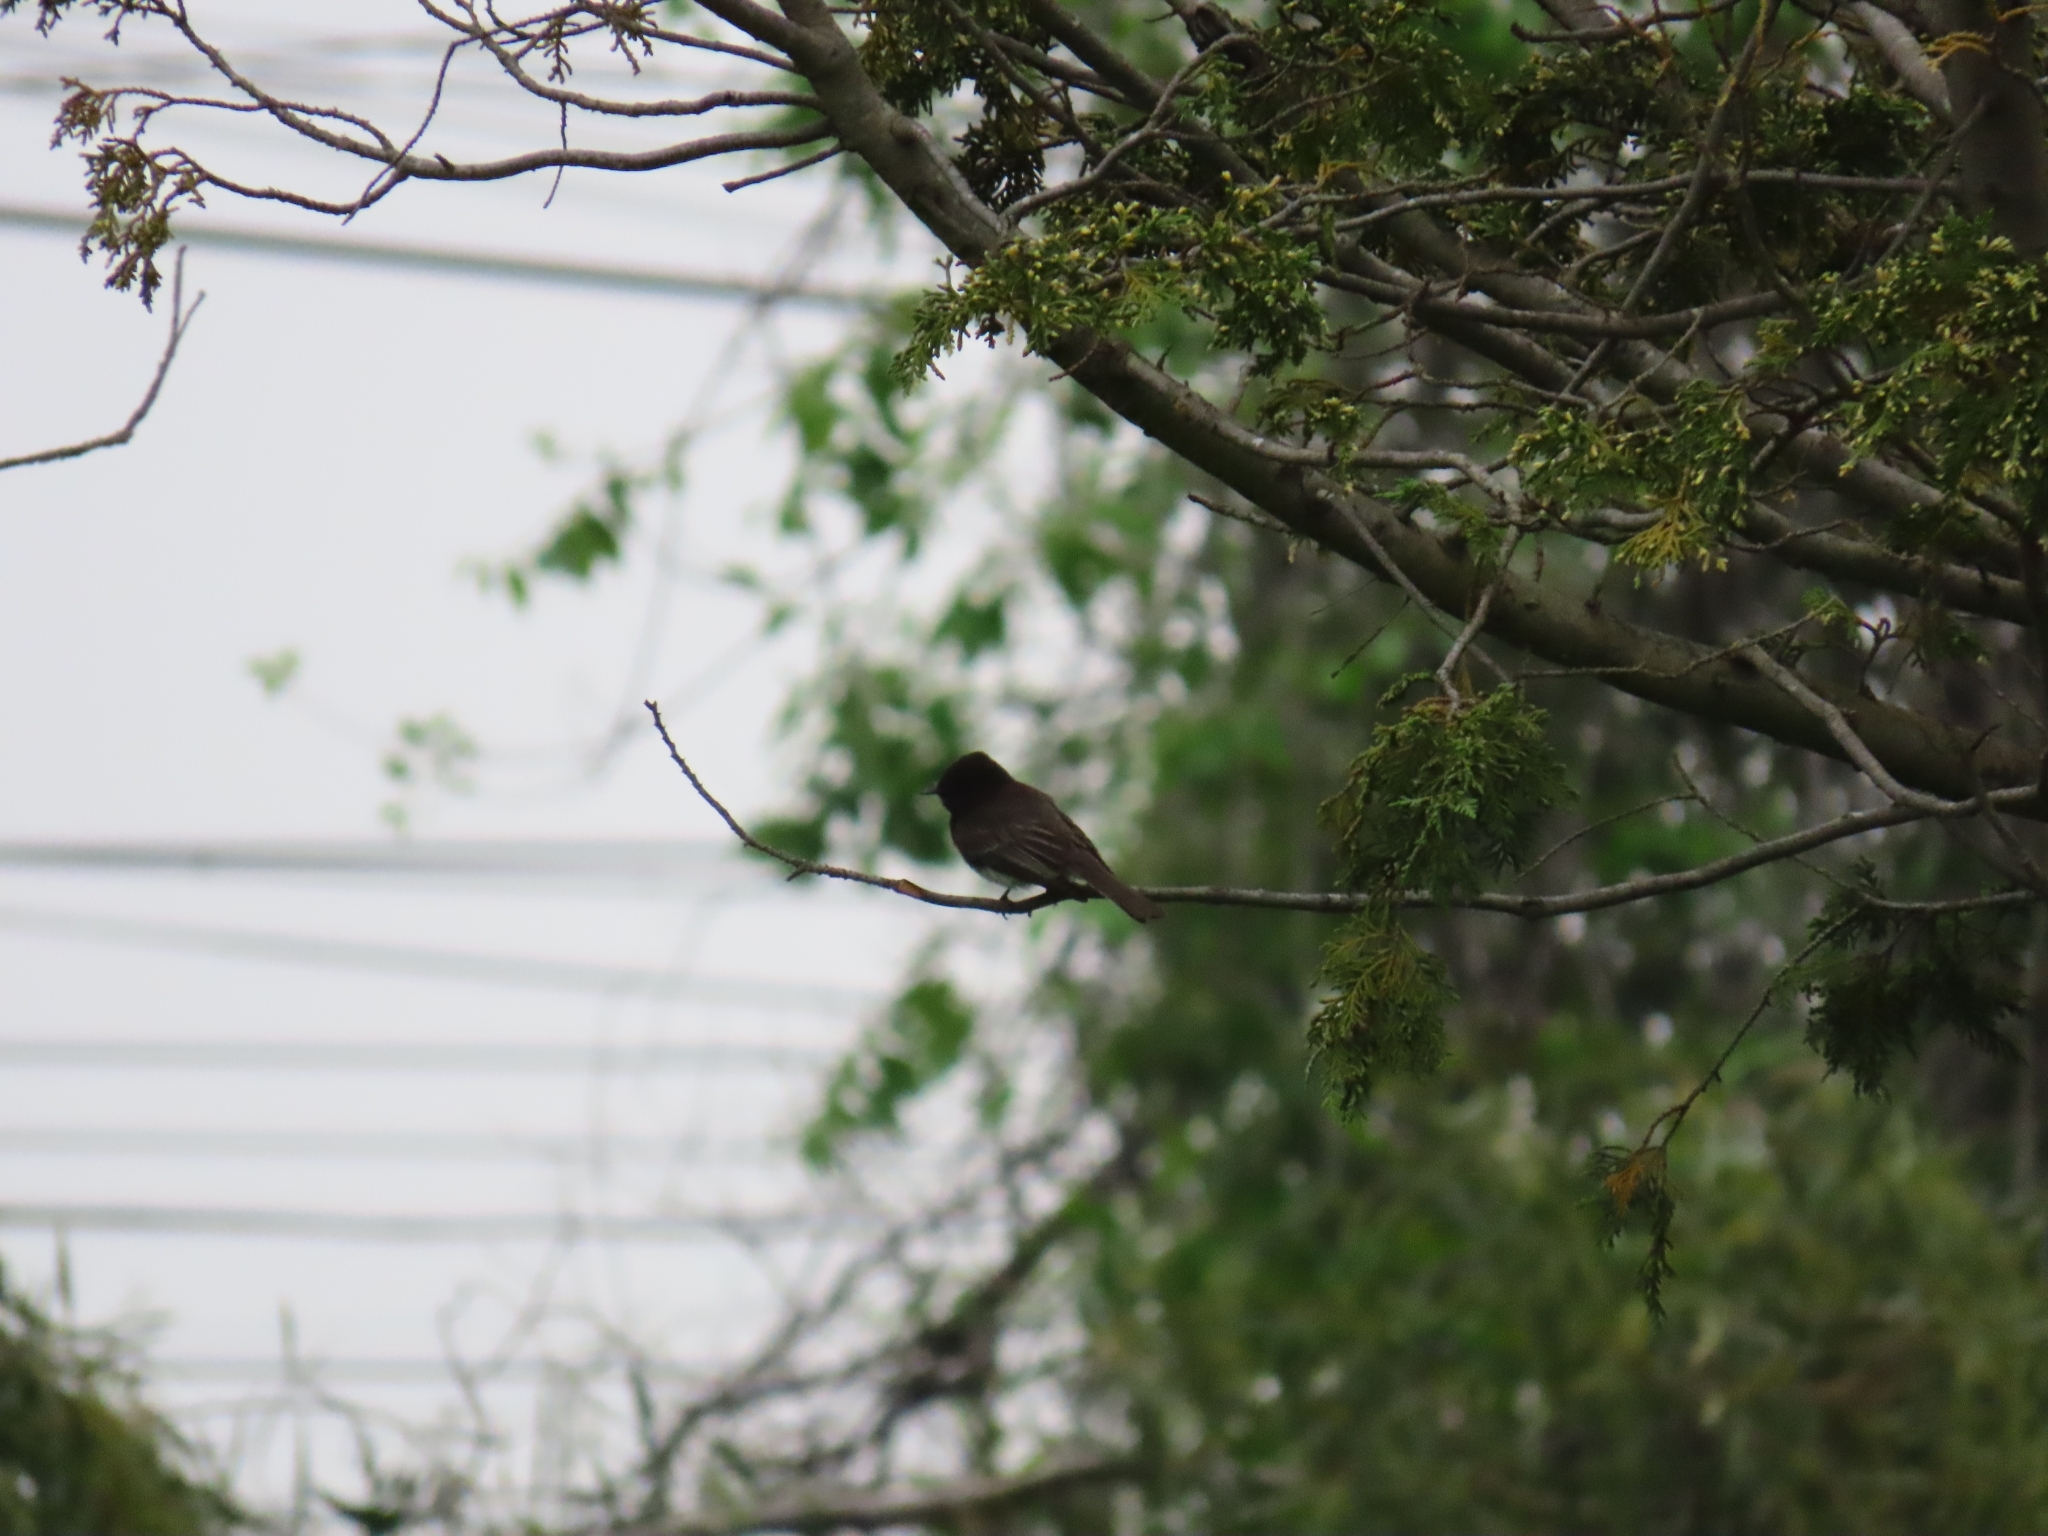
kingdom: Animalia
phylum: Chordata
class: Aves
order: Passeriformes
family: Tyrannidae
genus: Sayornis
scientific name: Sayornis nigricans
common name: Black phoebe
